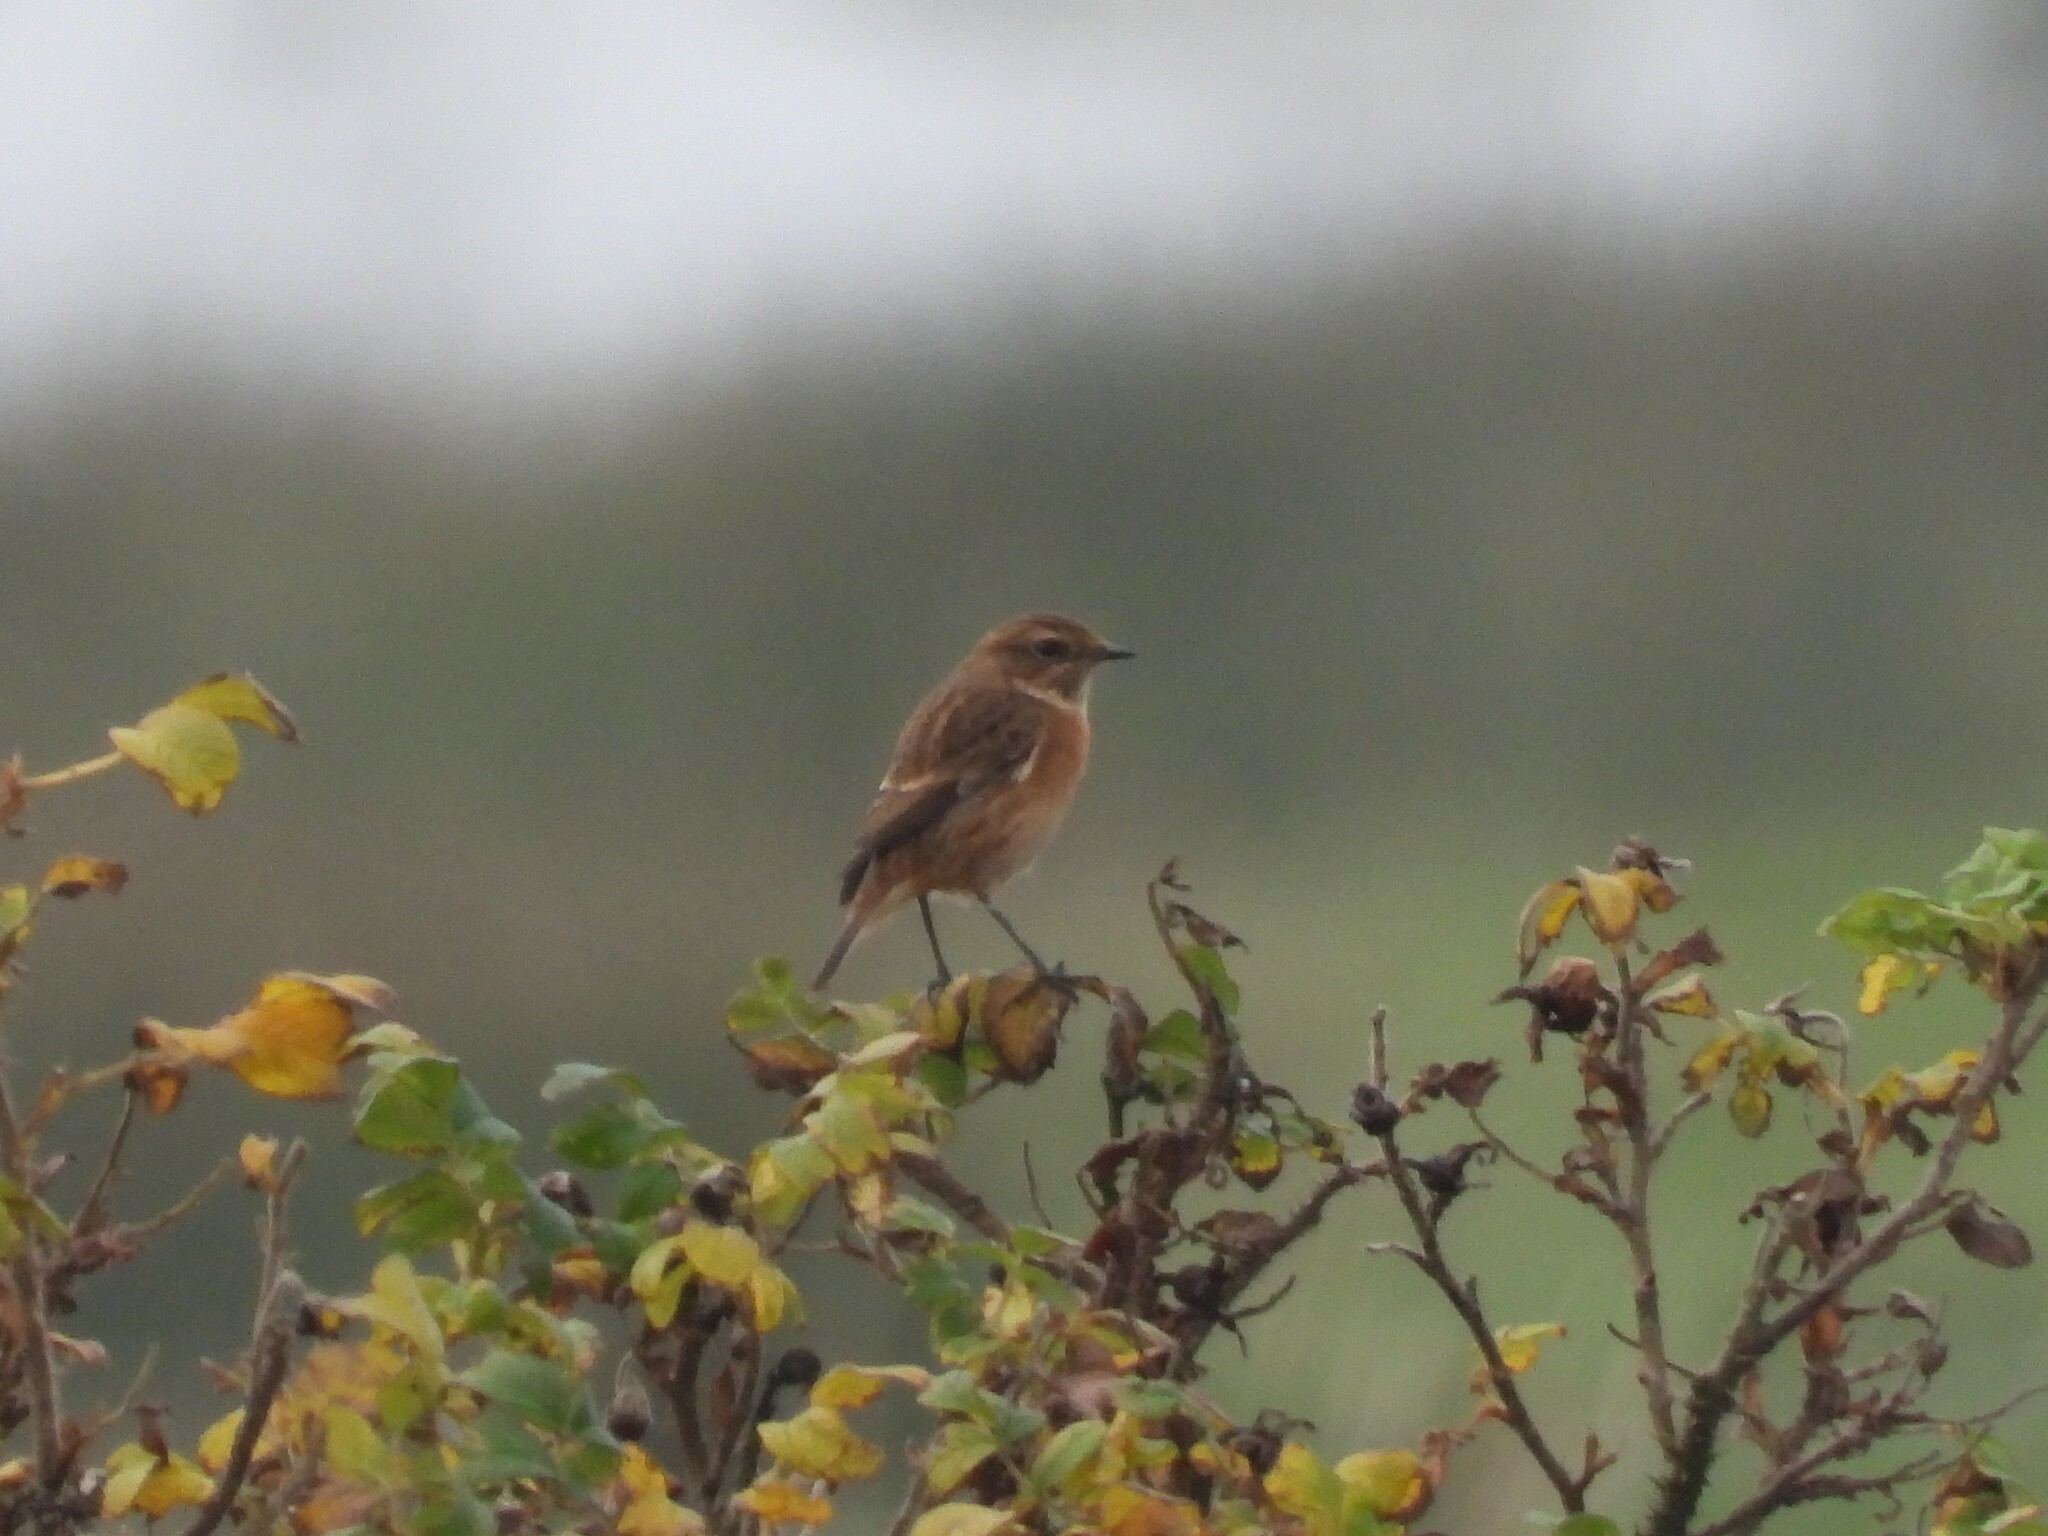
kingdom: Animalia
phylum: Chordata
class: Aves
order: Passeriformes
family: Muscicapidae
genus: Saxicola
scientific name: Saxicola rubicola
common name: European stonechat
